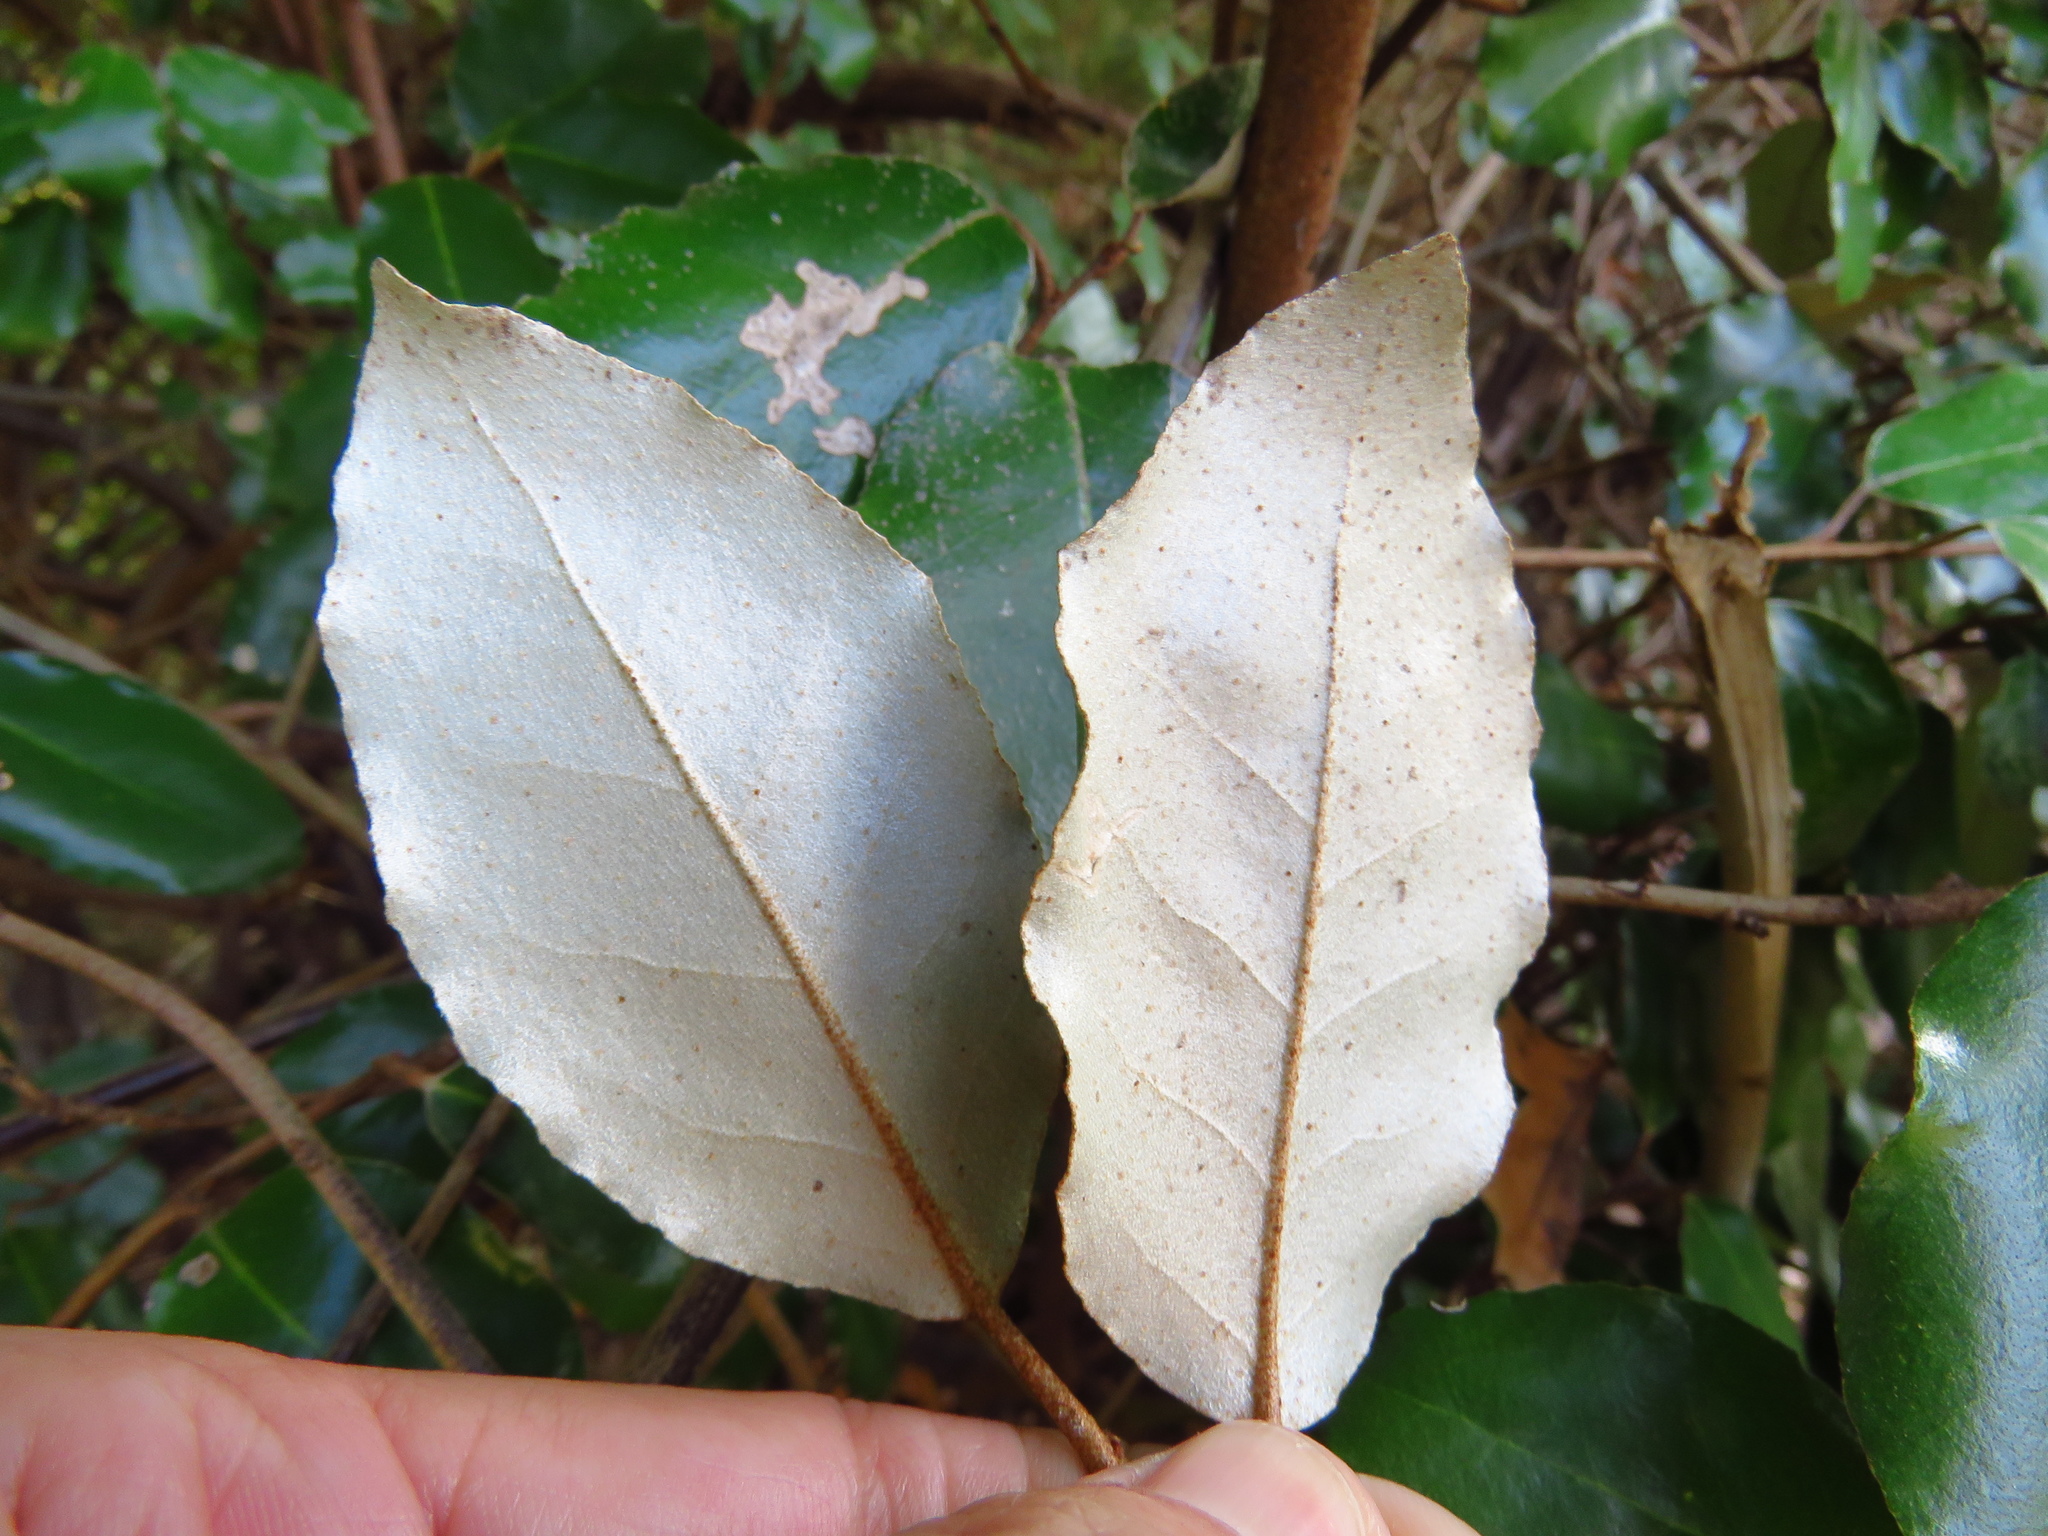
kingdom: Plantae
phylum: Tracheophyta
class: Magnoliopsida
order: Rosales
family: Elaeagnaceae
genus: Elaeagnus
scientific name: Elaeagnus pungens
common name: Spiny oleaster
